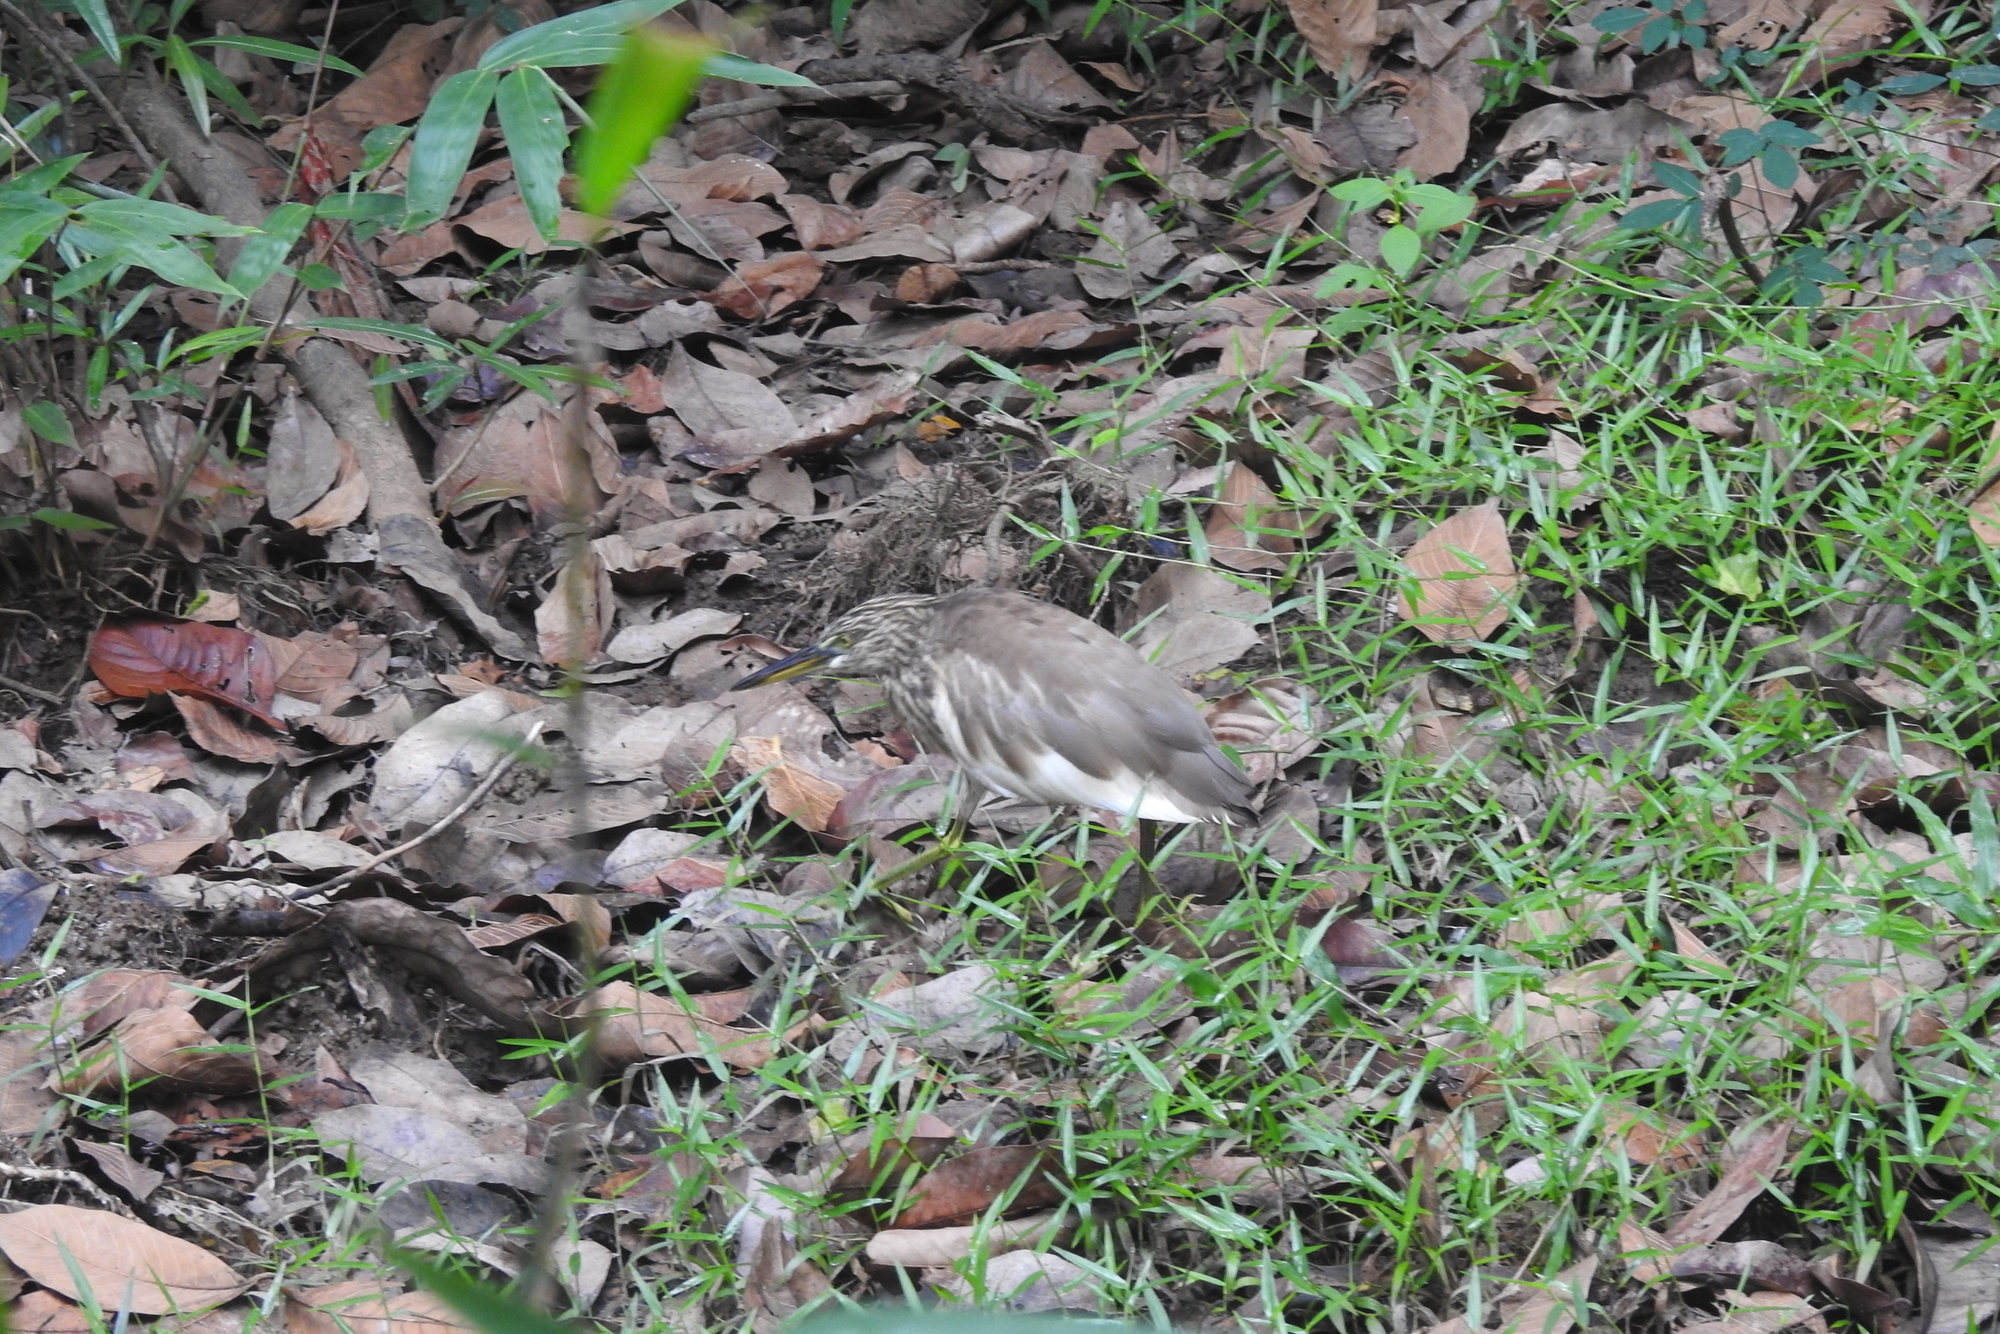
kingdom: Animalia
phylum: Chordata
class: Aves
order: Pelecaniformes
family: Ardeidae
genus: Ardeola
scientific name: Ardeola grayii
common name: Indian pond heron
